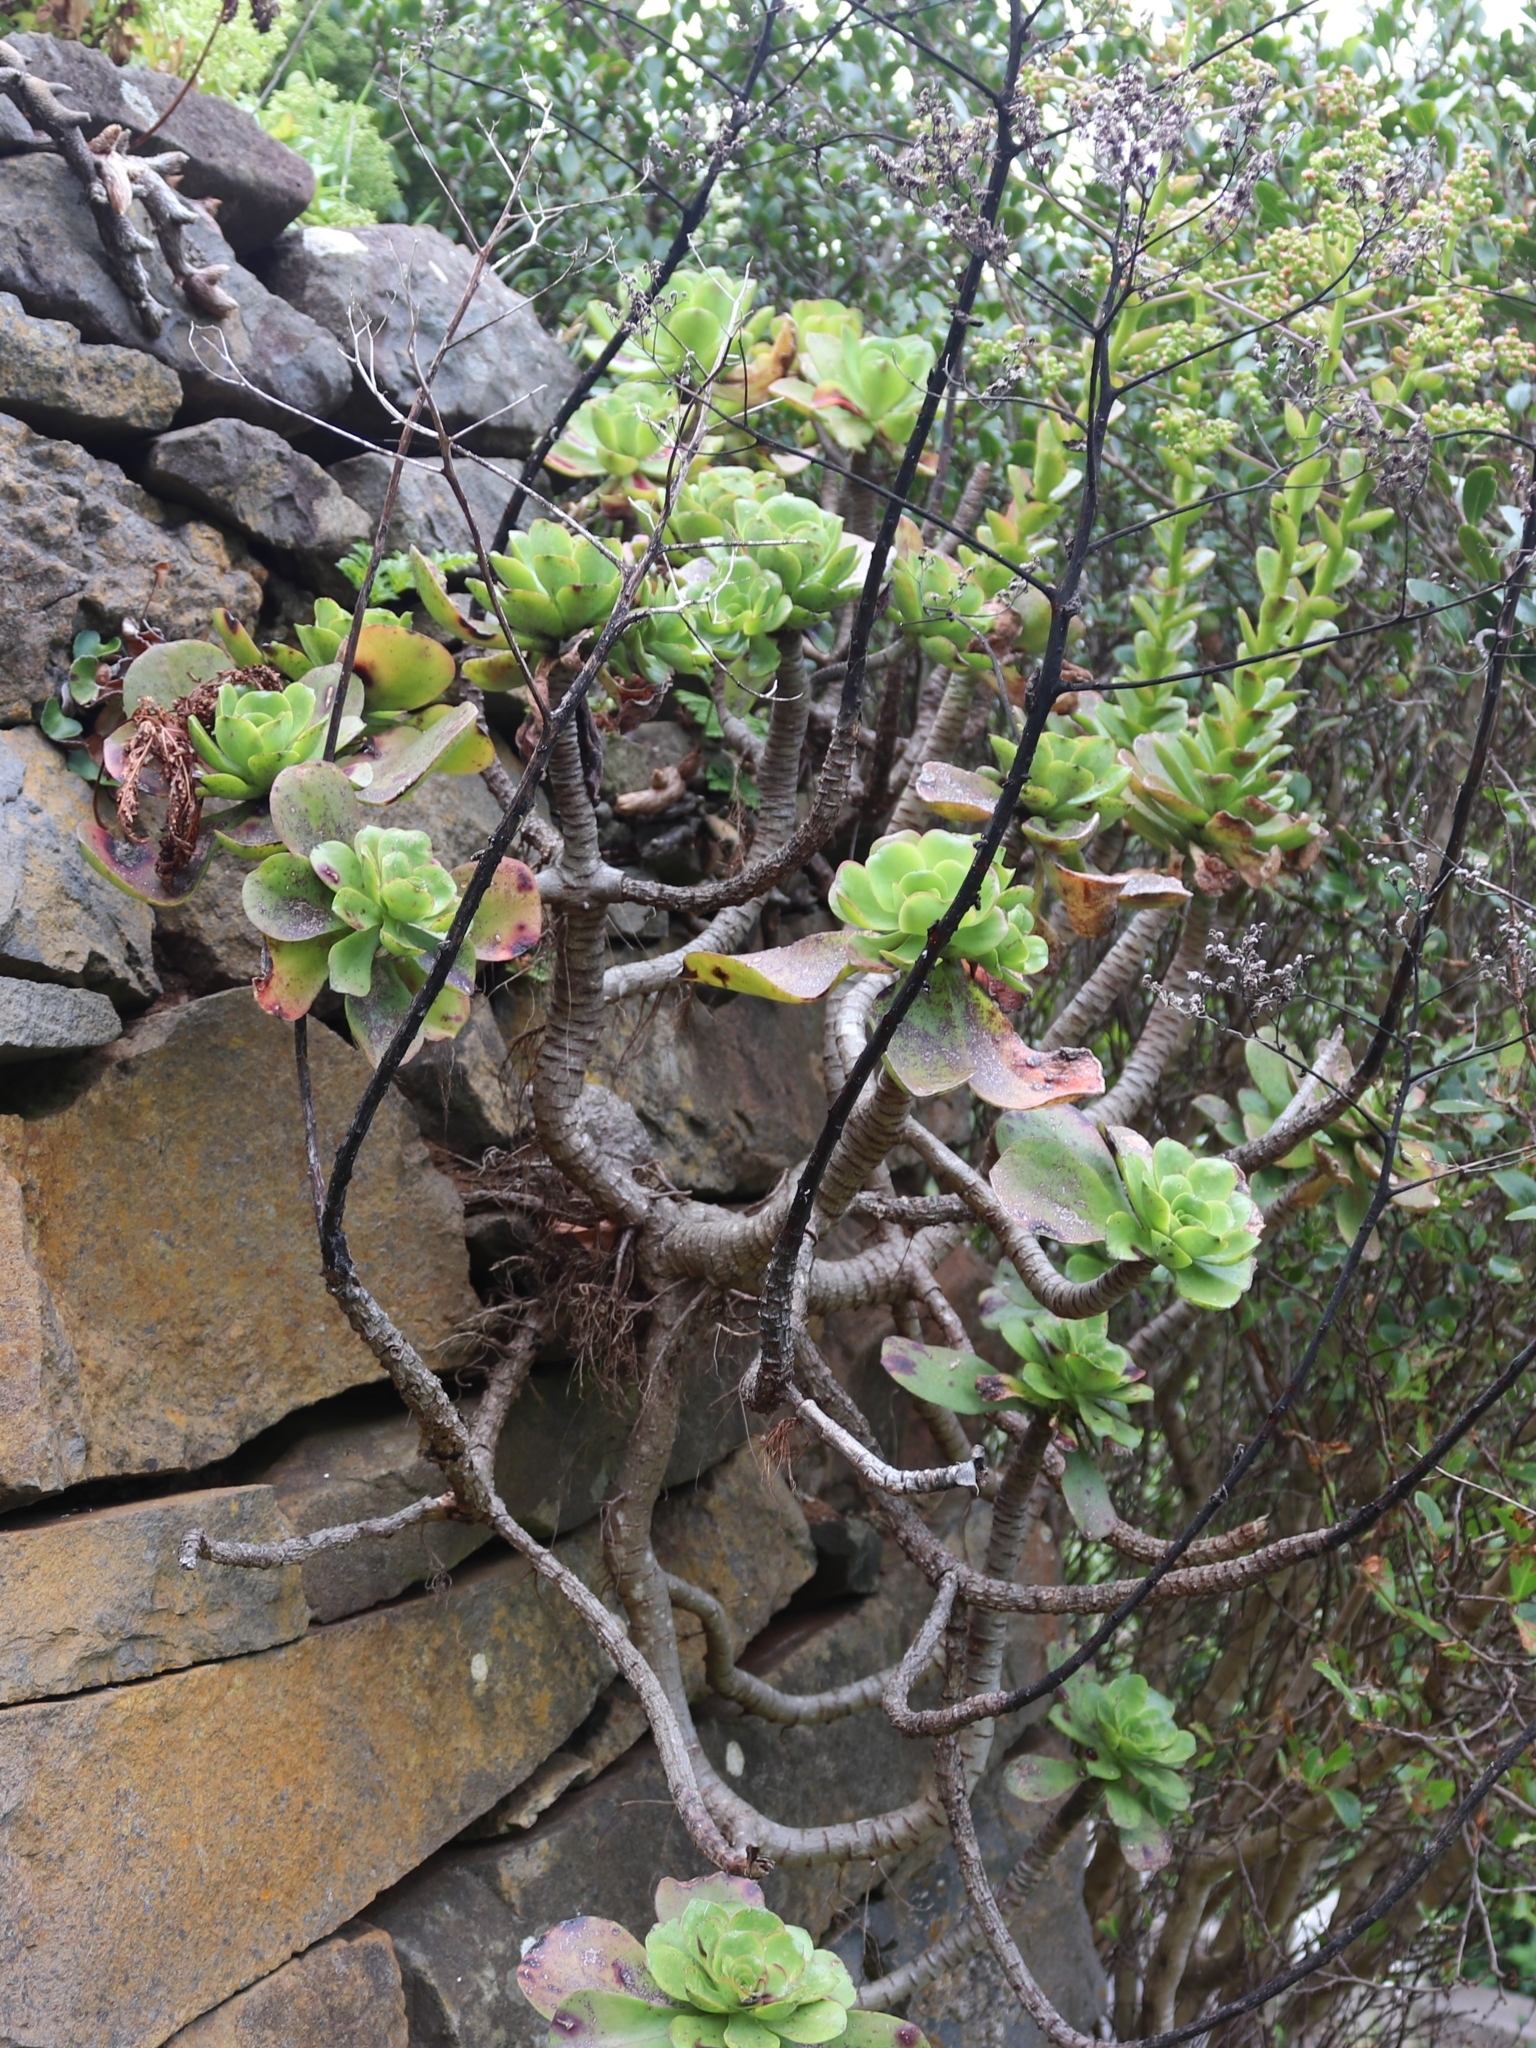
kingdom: Plantae
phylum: Tracheophyta
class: Magnoliopsida
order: Saxifragales
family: Crassulaceae
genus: Aeonium
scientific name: Aeonium glutinosum
